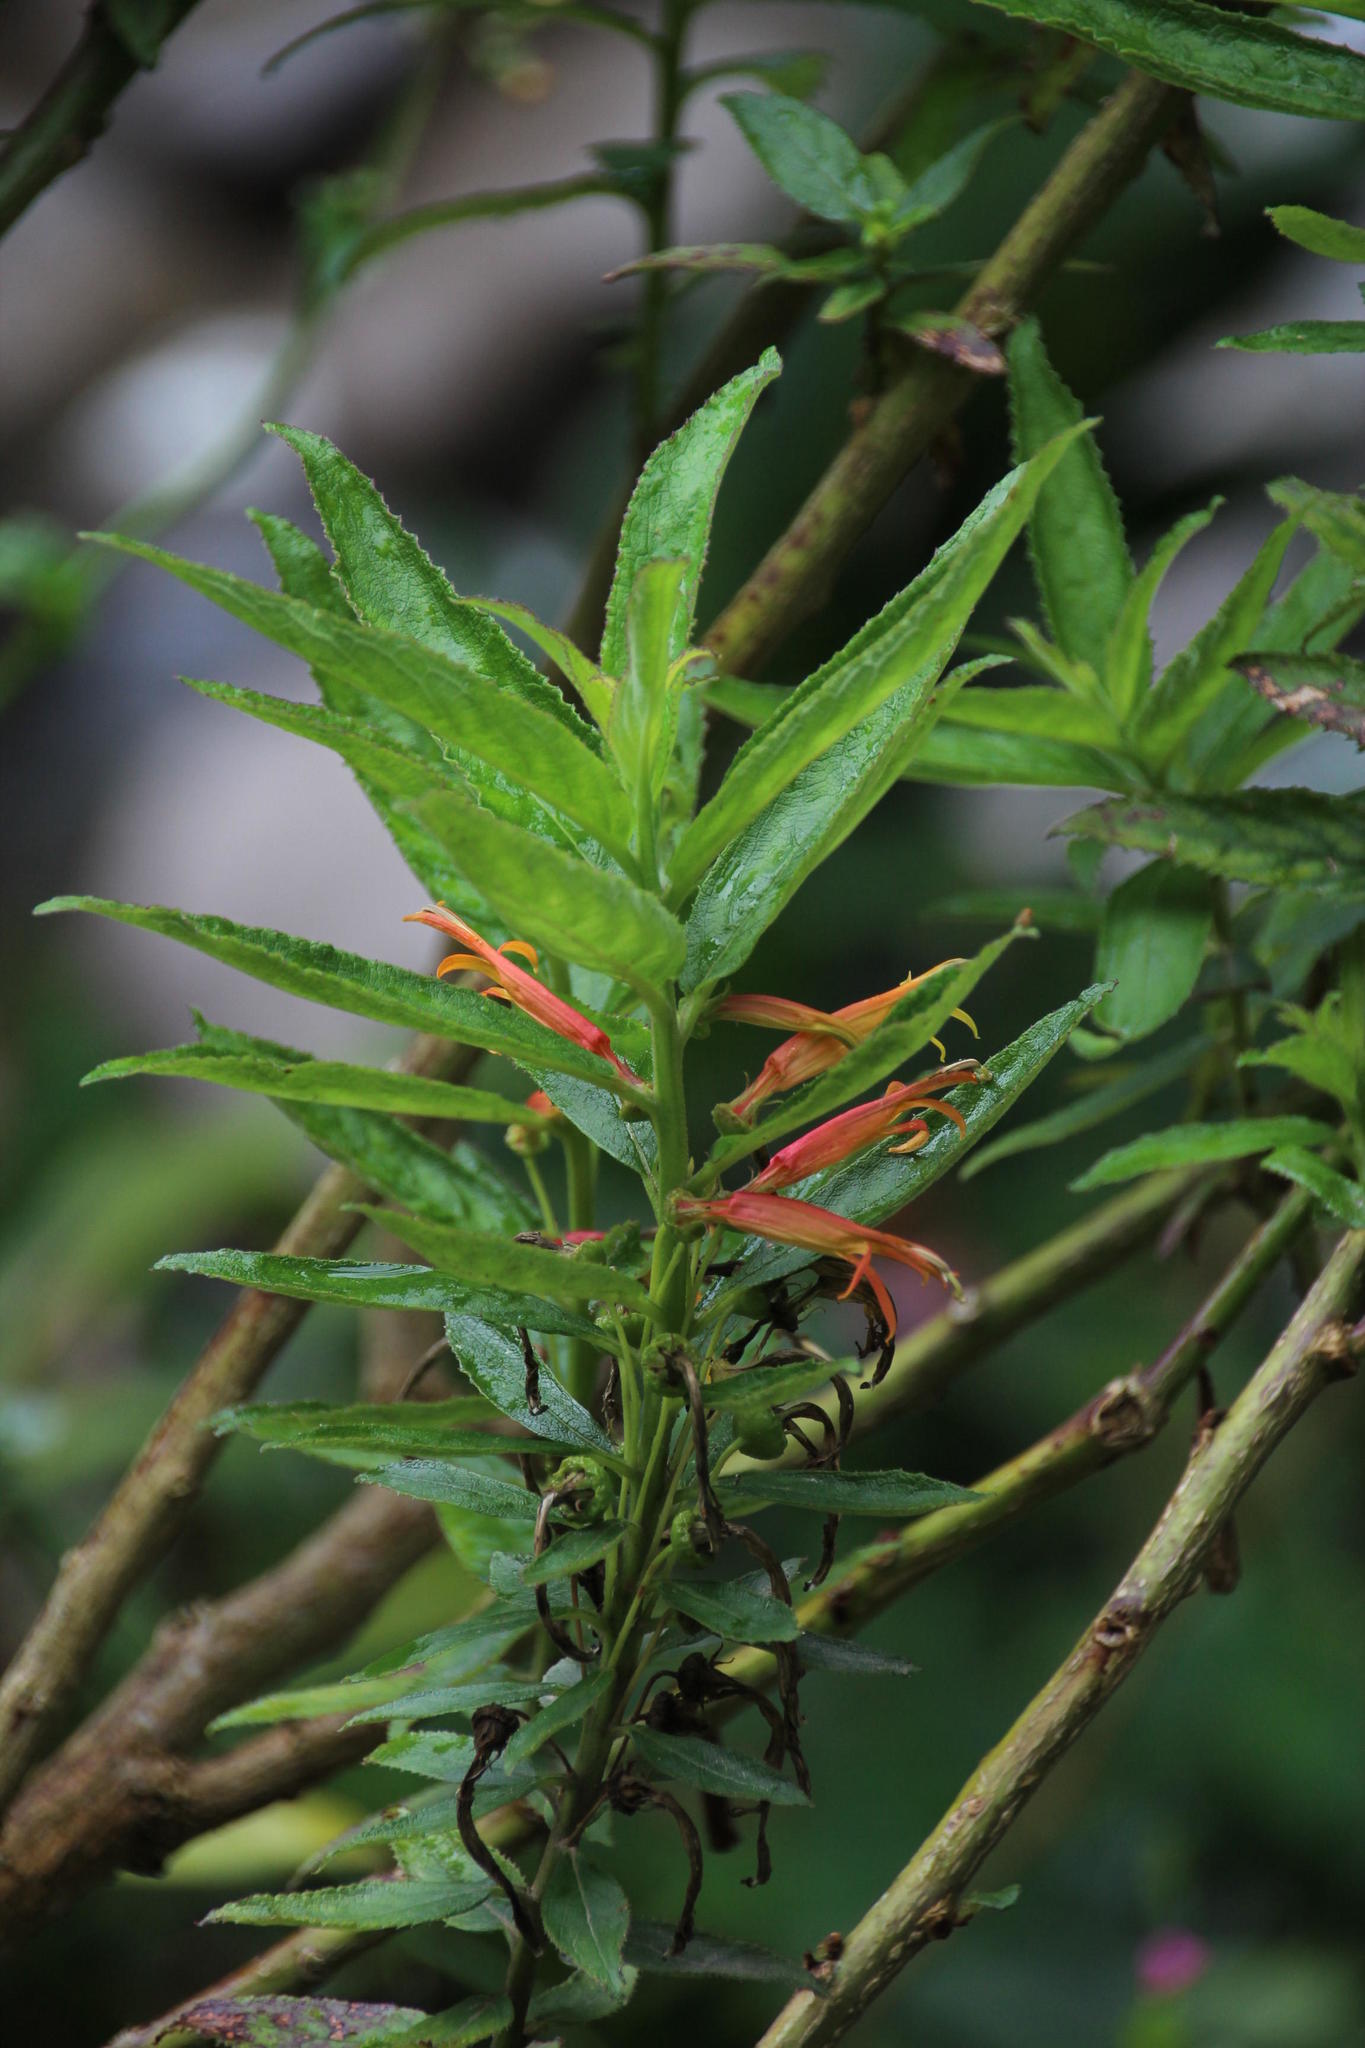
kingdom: Plantae
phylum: Tracheophyta
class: Magnoliopsida
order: Asterales
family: Campanulaceae
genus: Siphocampylus
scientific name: Siphocampylus krauseanus
